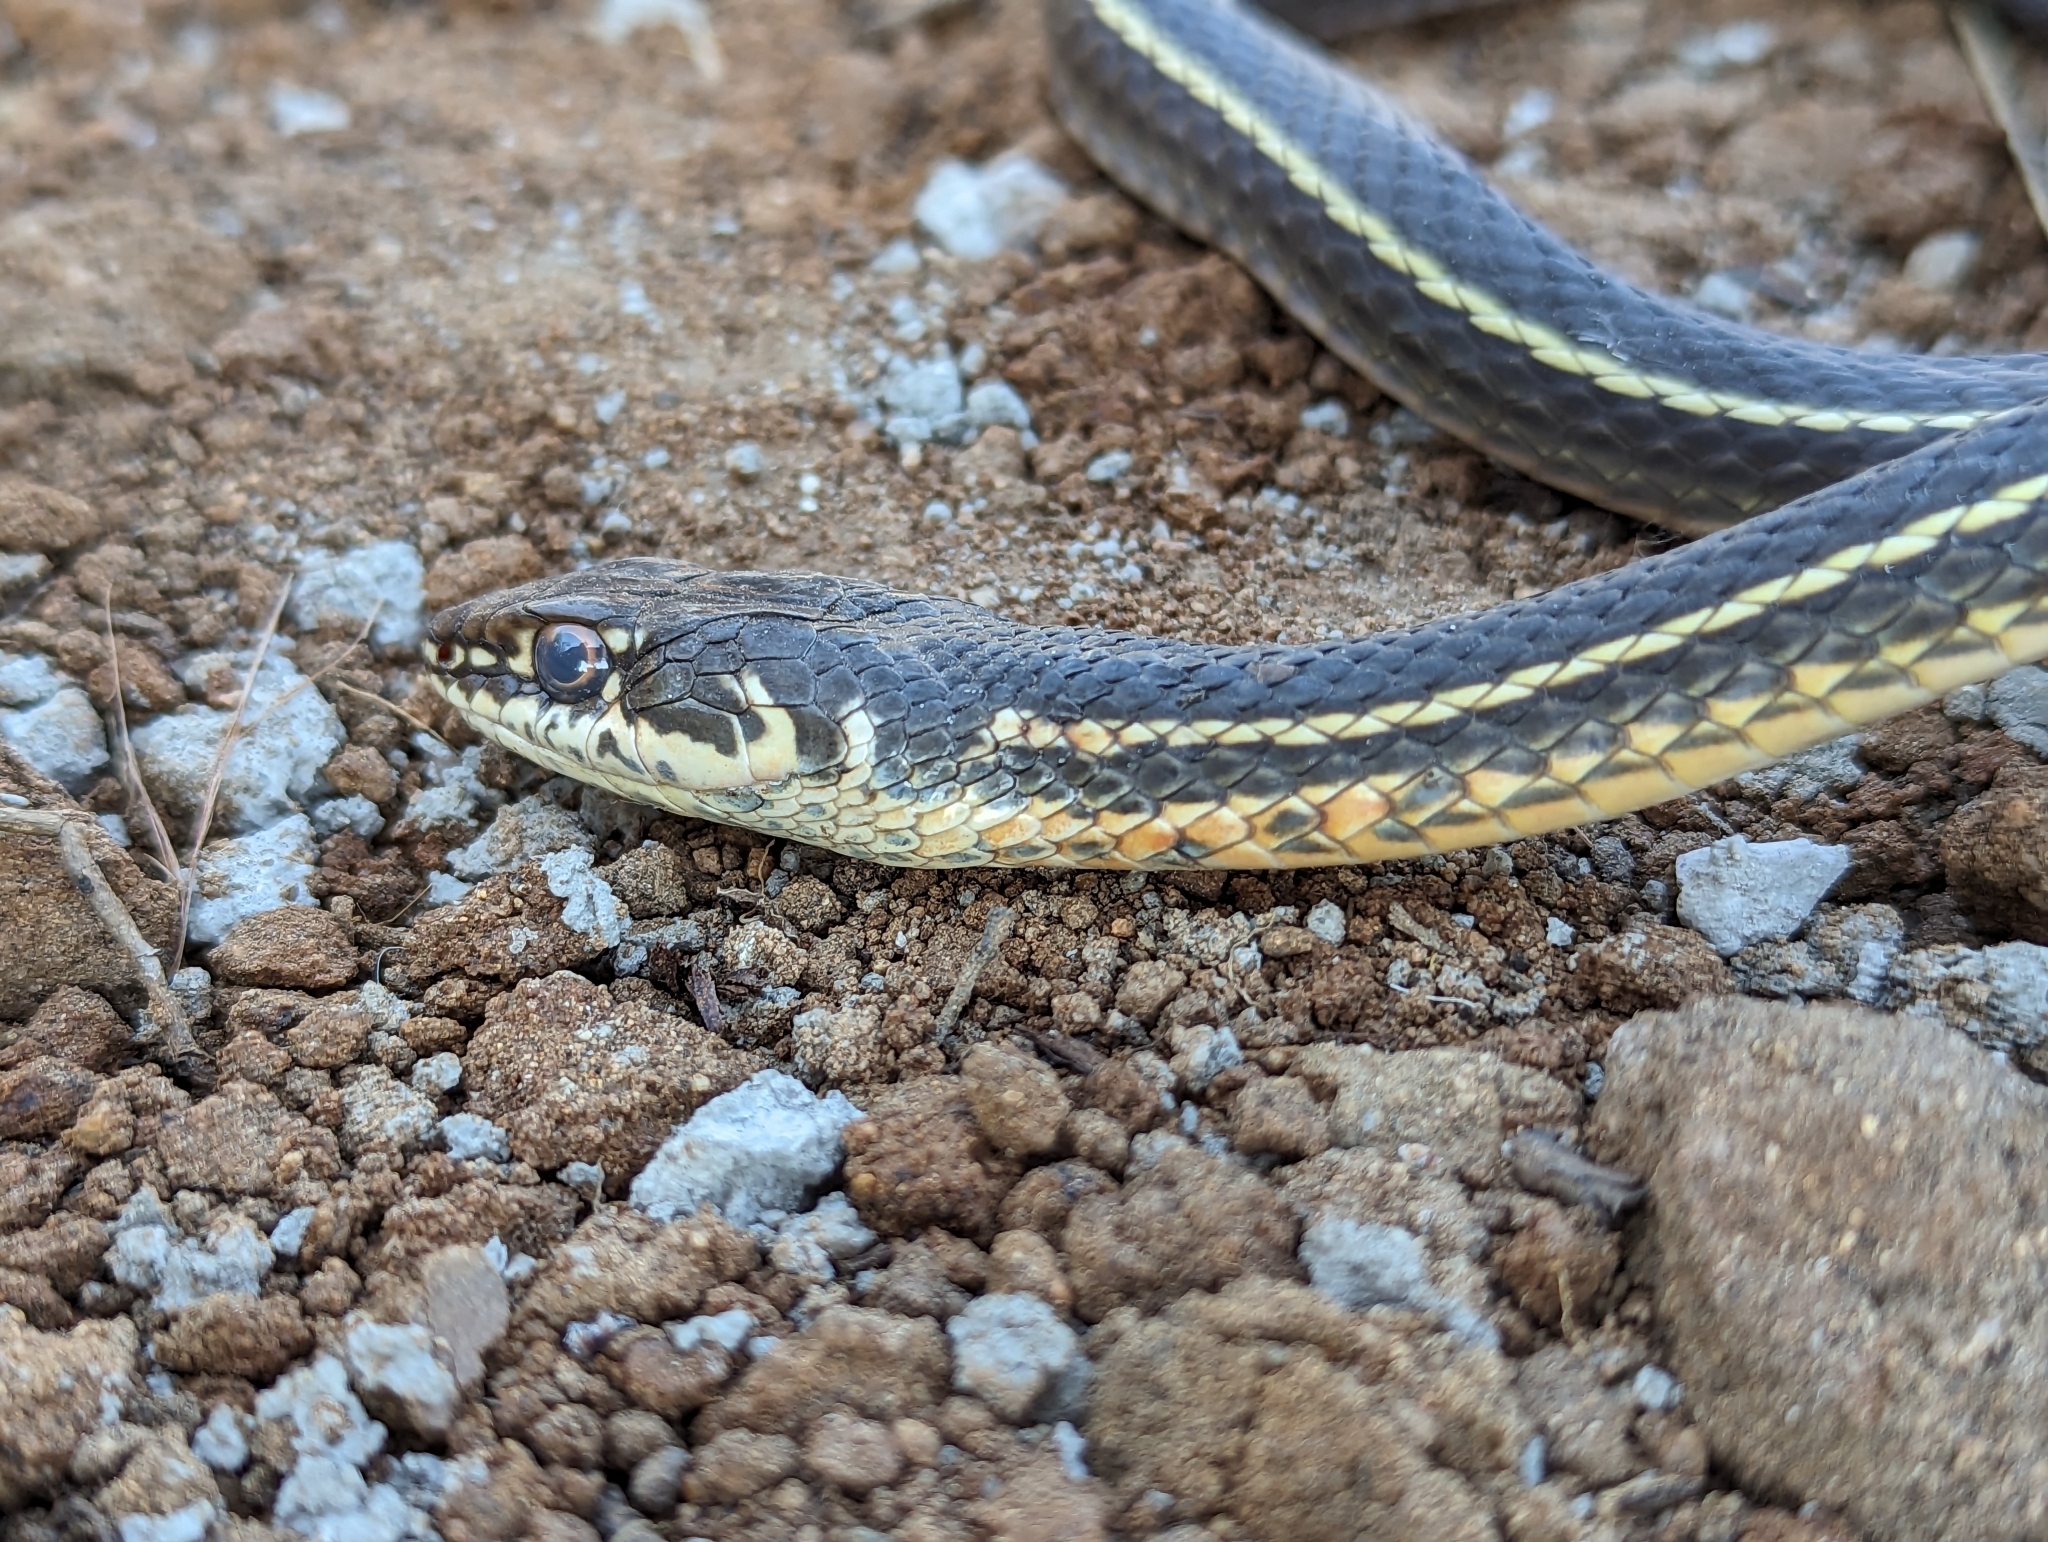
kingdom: Animalia
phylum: Chordata
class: Squamata
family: Colubridae
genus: Masticophis
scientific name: Masticophis lateralis
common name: Striped racer
